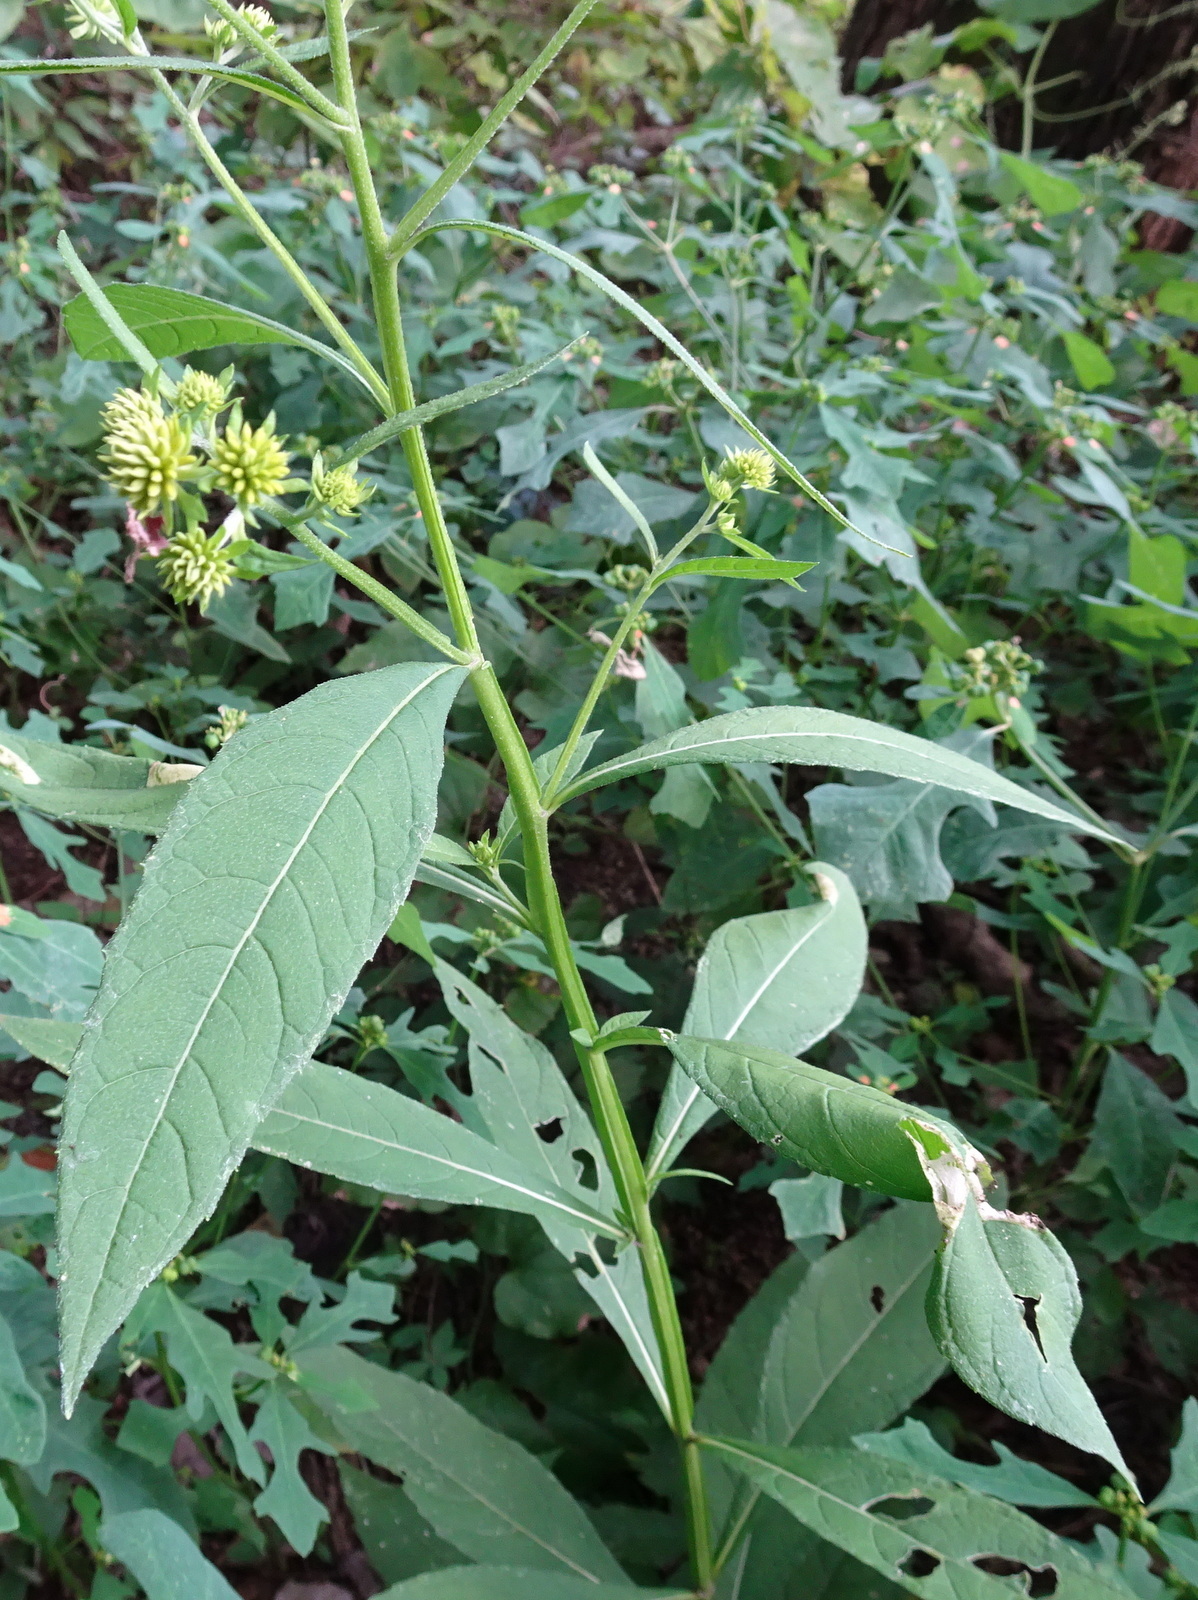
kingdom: Plantae
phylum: Tracheophyta
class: Magnoliopsida
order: Asterales
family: Asteraceae
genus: Verbesina
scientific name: Verbesina alternifolia
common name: Wingstem
